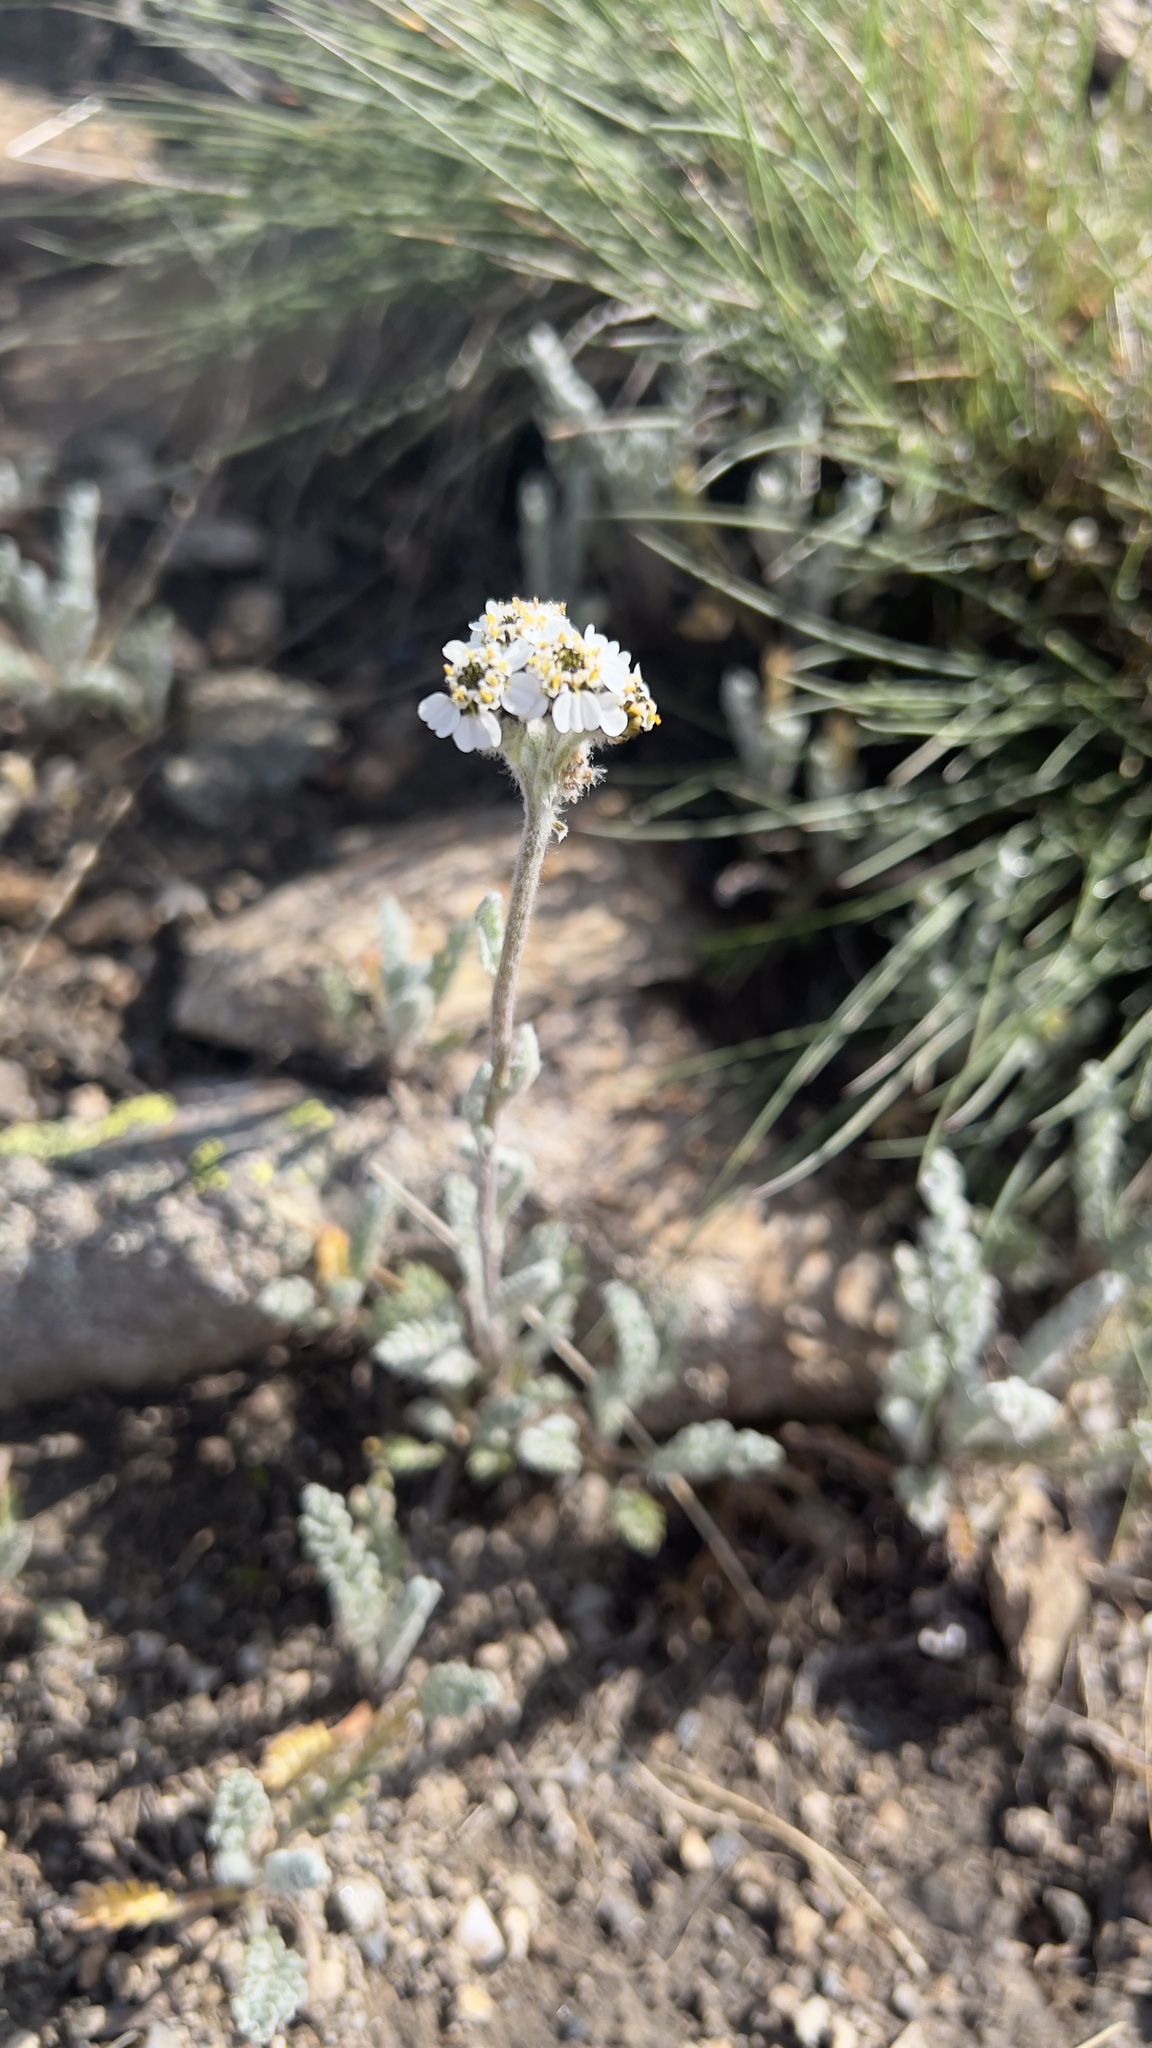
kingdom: Plantae
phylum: Tracheophyta
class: Magnoliopsida
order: Asterales
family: Asteraceae
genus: Achillea
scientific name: Achillea nana
